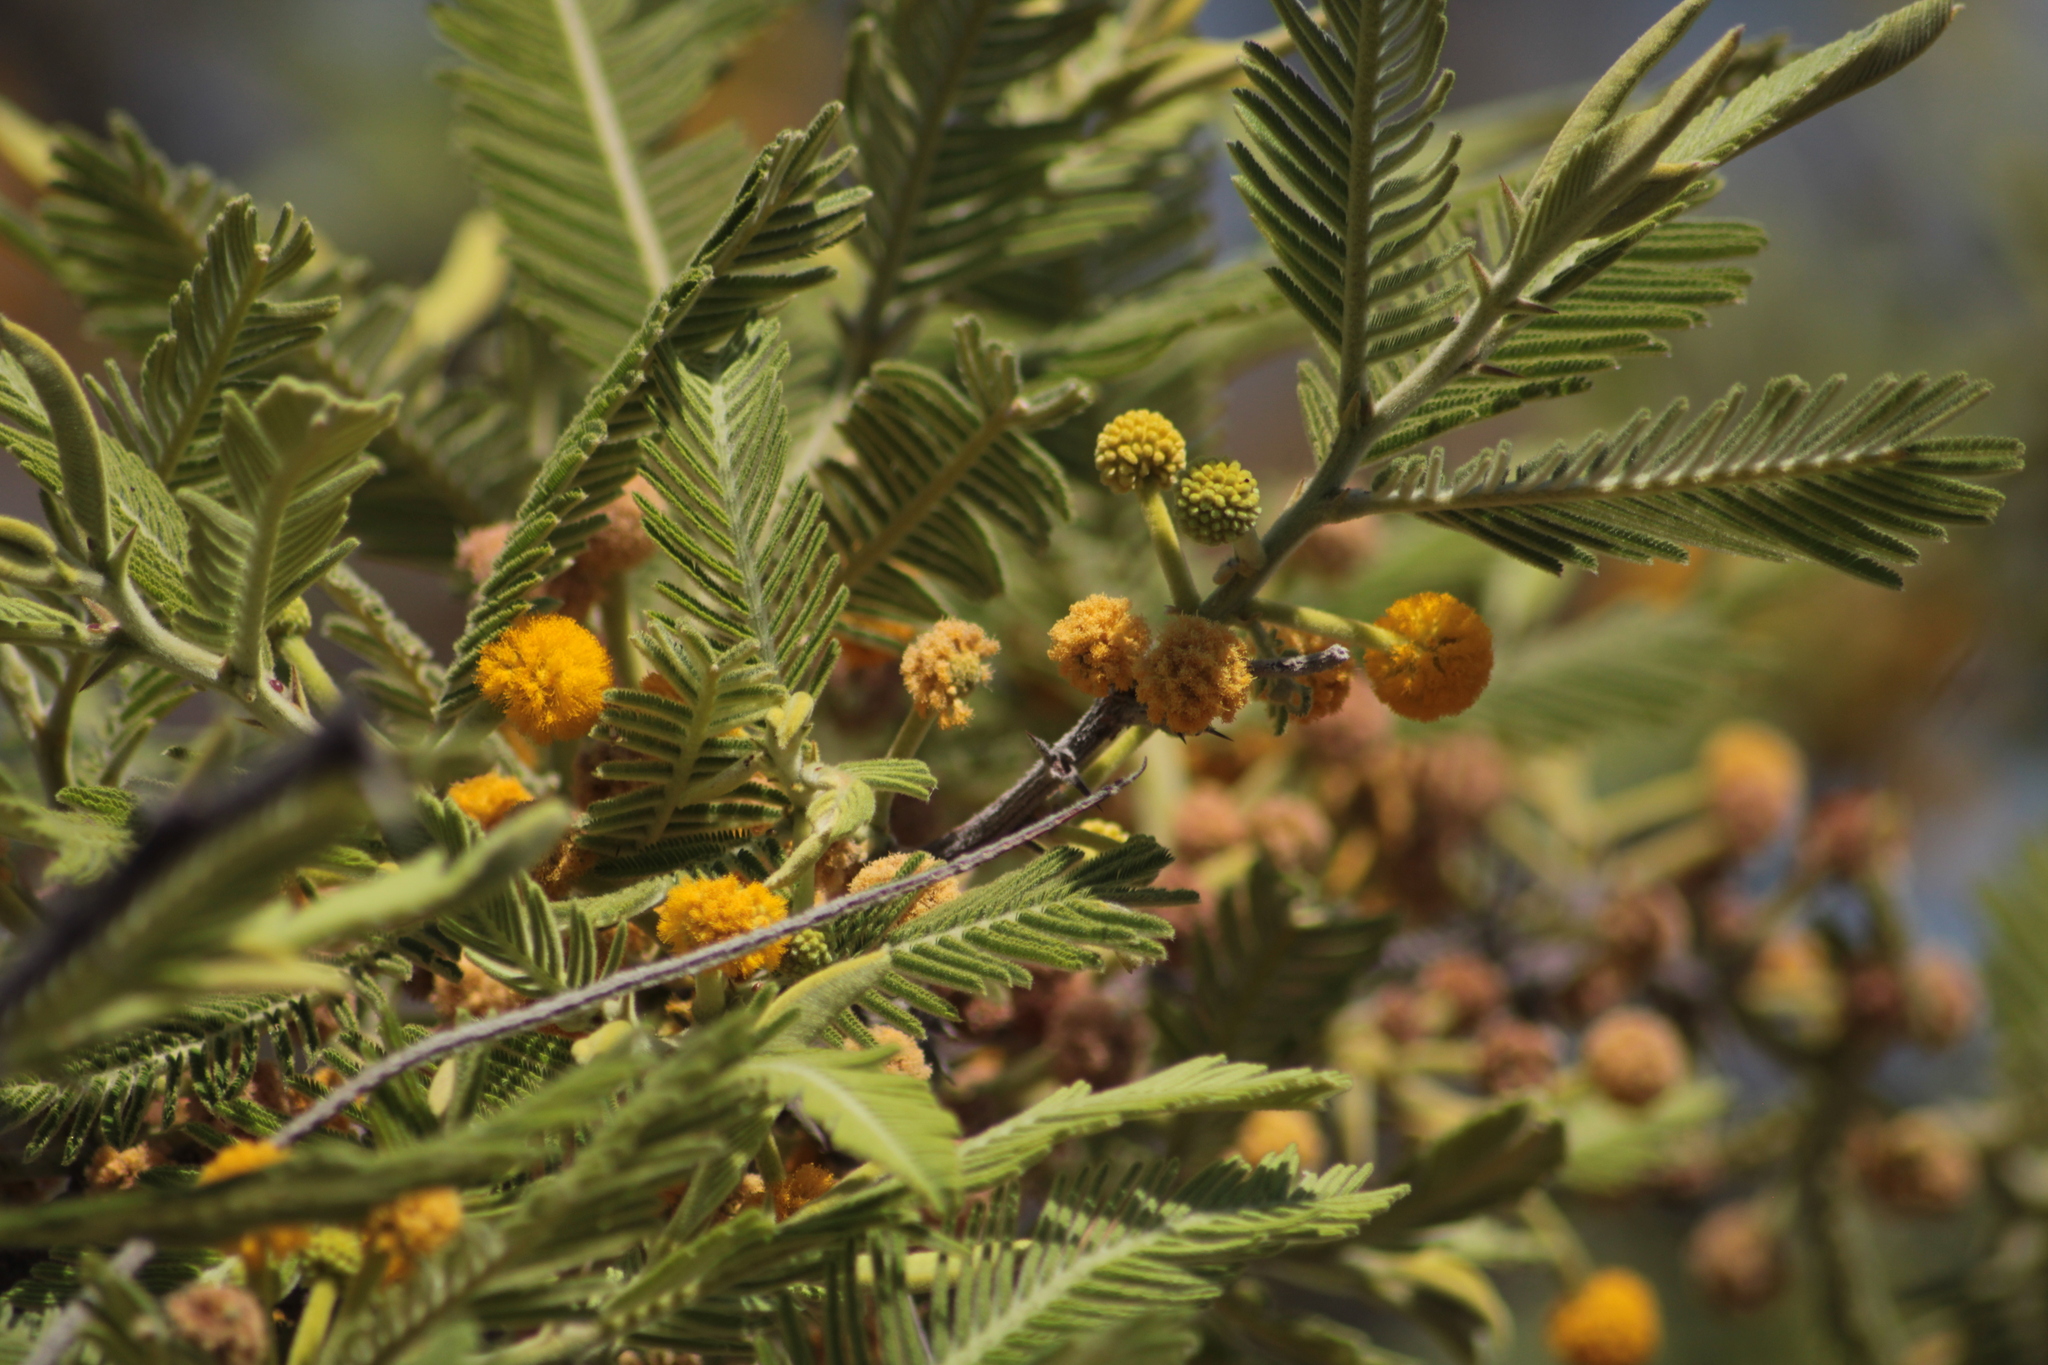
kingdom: Plantae
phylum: Tracheophyta
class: Magnoliopsida
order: Fabales
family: Fabaceae
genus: Vachellia
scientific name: Vachellia pennatula
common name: Fern-leaf acacia
